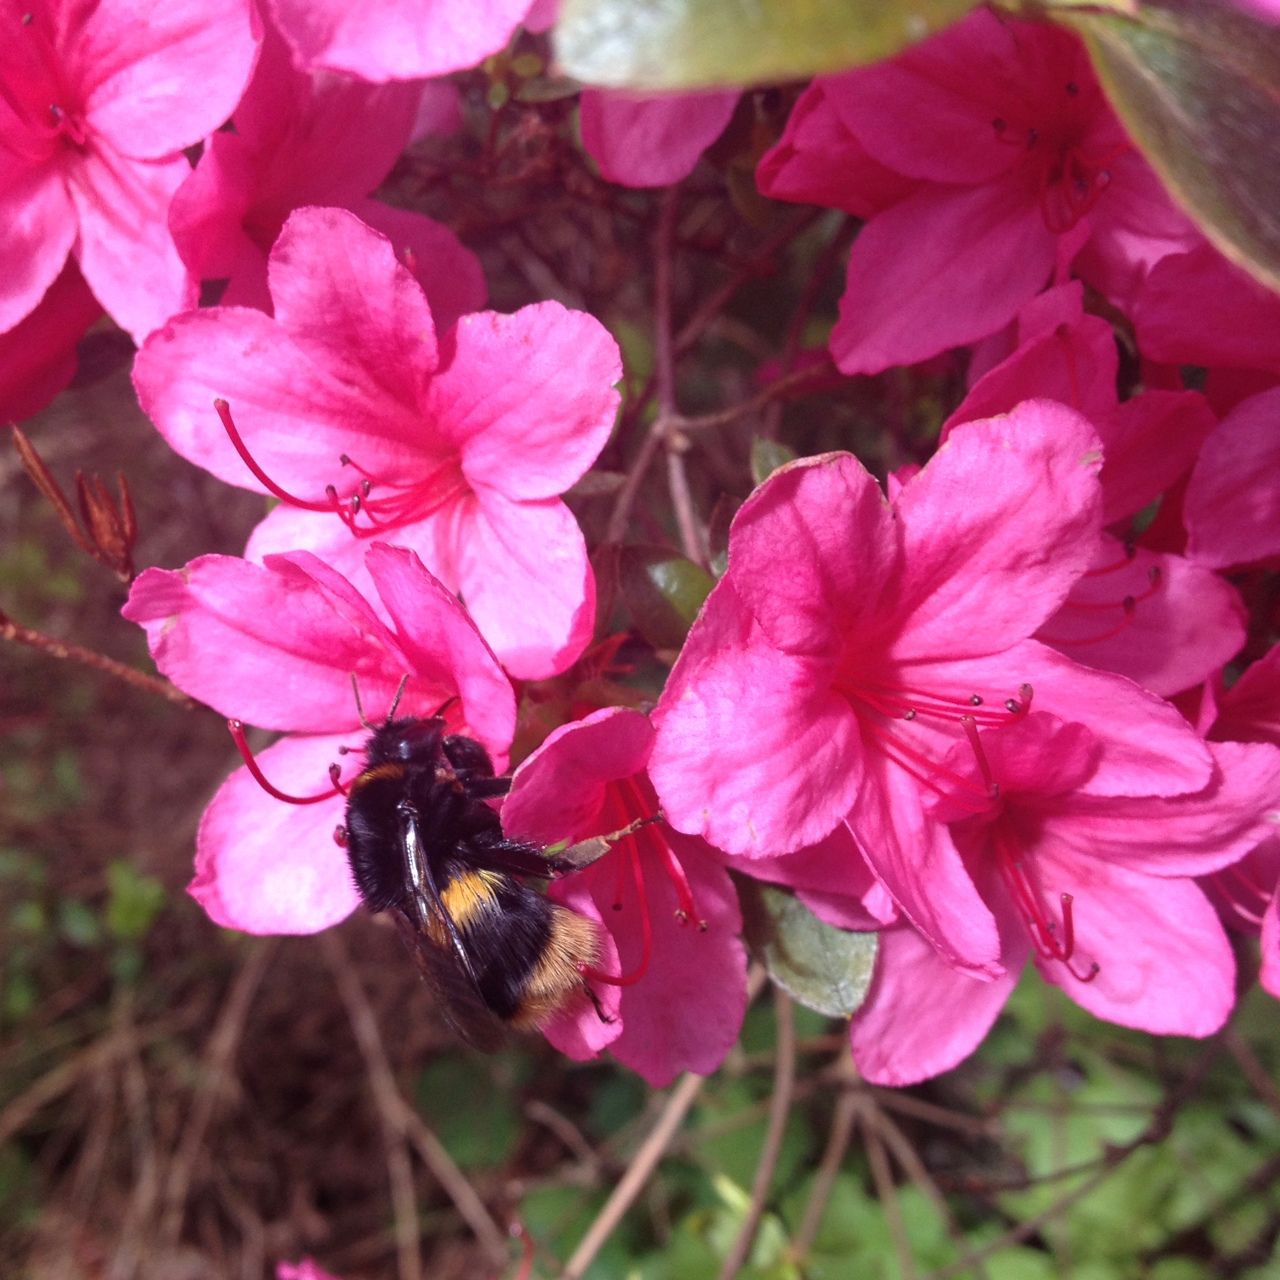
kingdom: Animalia
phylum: Arthropoda
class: Insecta
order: Hymenoptera
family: Apidae
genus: Bombus
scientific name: Bombus terrestris
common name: Buff-tailed bumblebee
